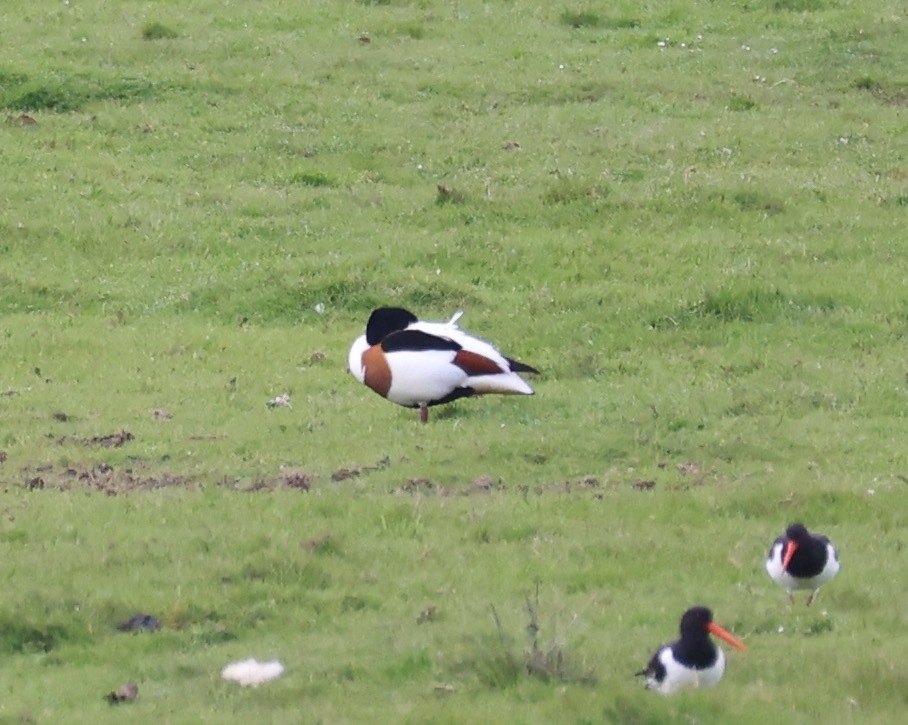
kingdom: Animalia
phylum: Chordata
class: Aves
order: Anseriformes
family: Anatidae
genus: Tadorna
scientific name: Tadorna tadorna
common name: Common shelduck
